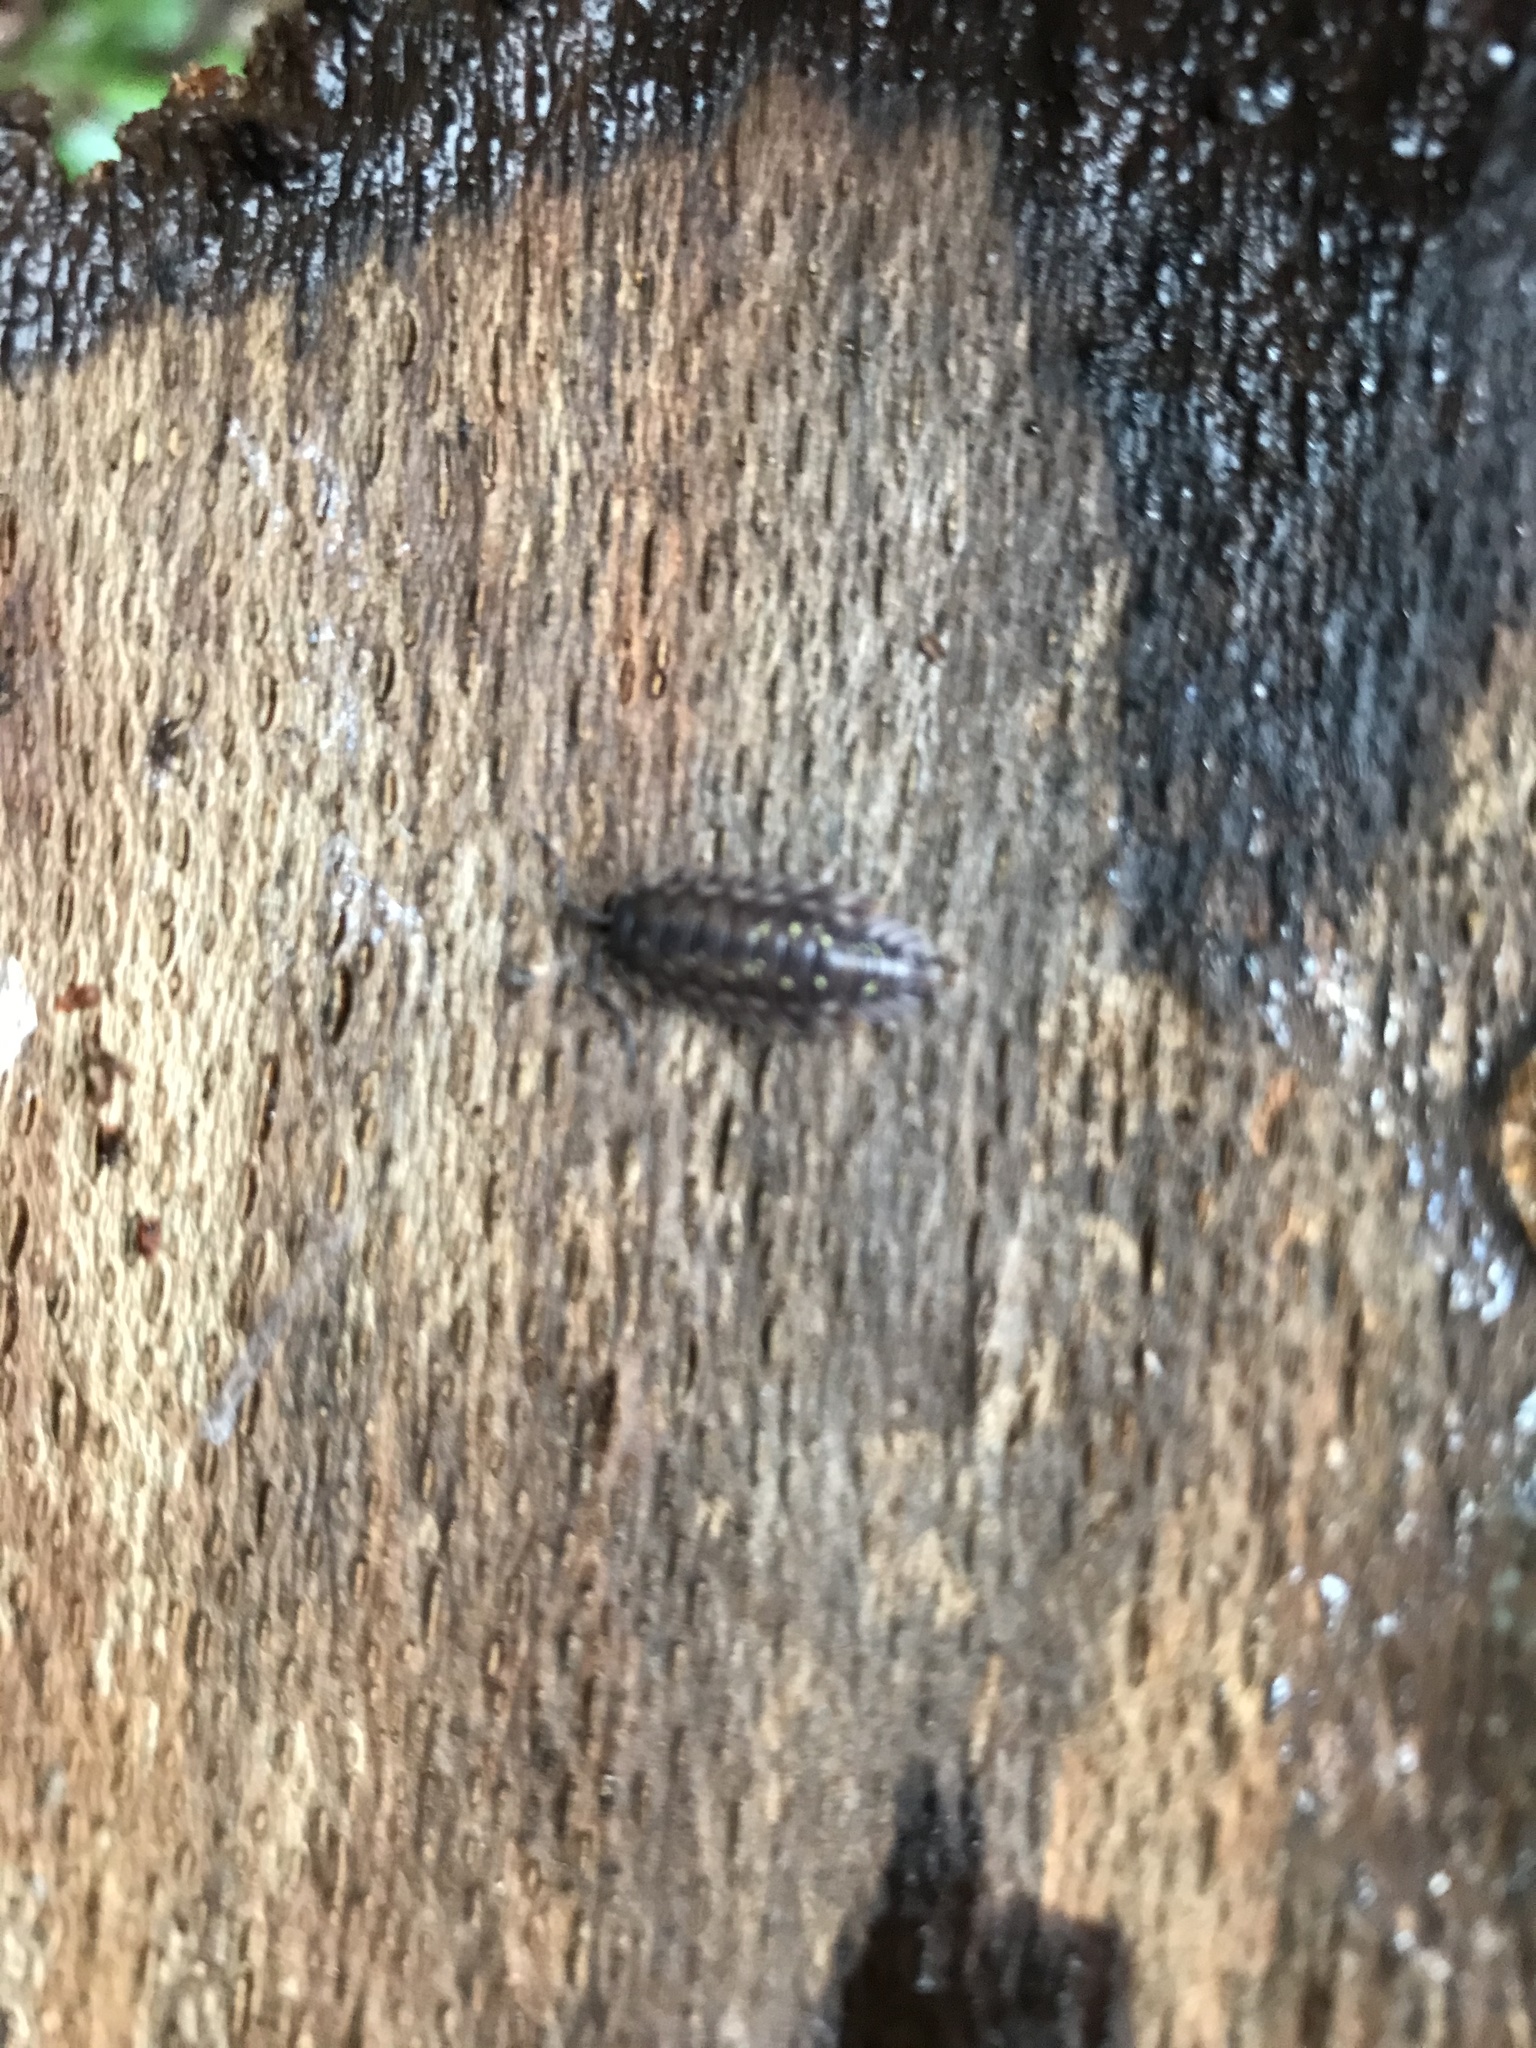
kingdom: Animalia
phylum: Arthropoda
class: Malacostraca
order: Isopoda
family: Oniscidae
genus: Oniscus
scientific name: Oniscus asellus
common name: Common shiny woodlouse
